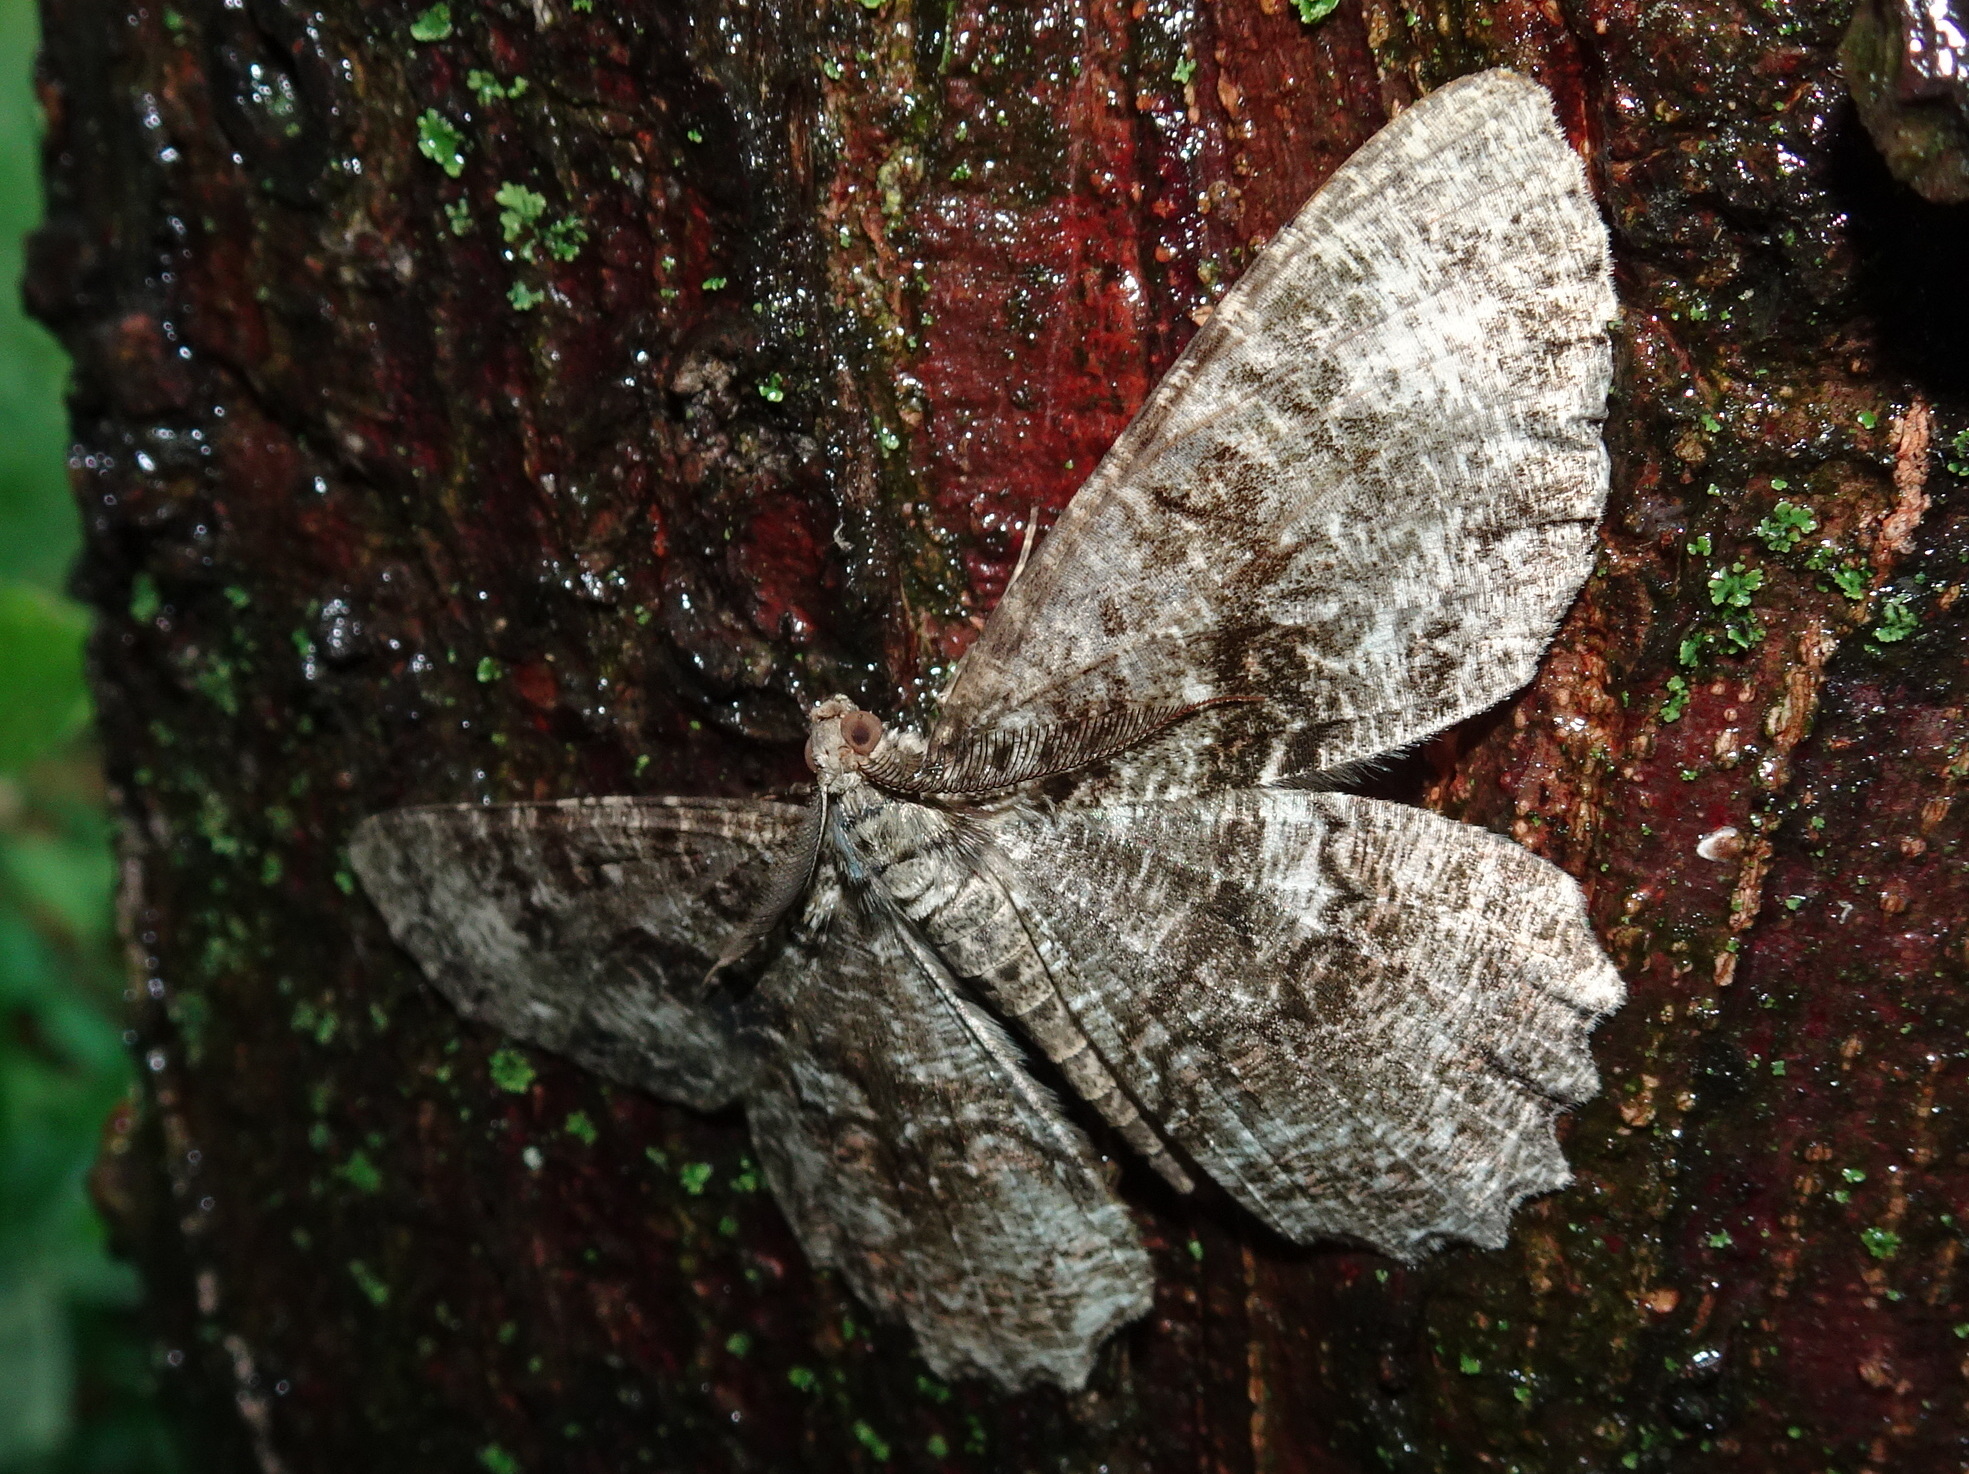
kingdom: Animalia
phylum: Arthropoda
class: Insecta
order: Lepidoptera
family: Geometridae
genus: Epimecis
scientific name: Epimecis hortaria
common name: Tulip-tree beauty
